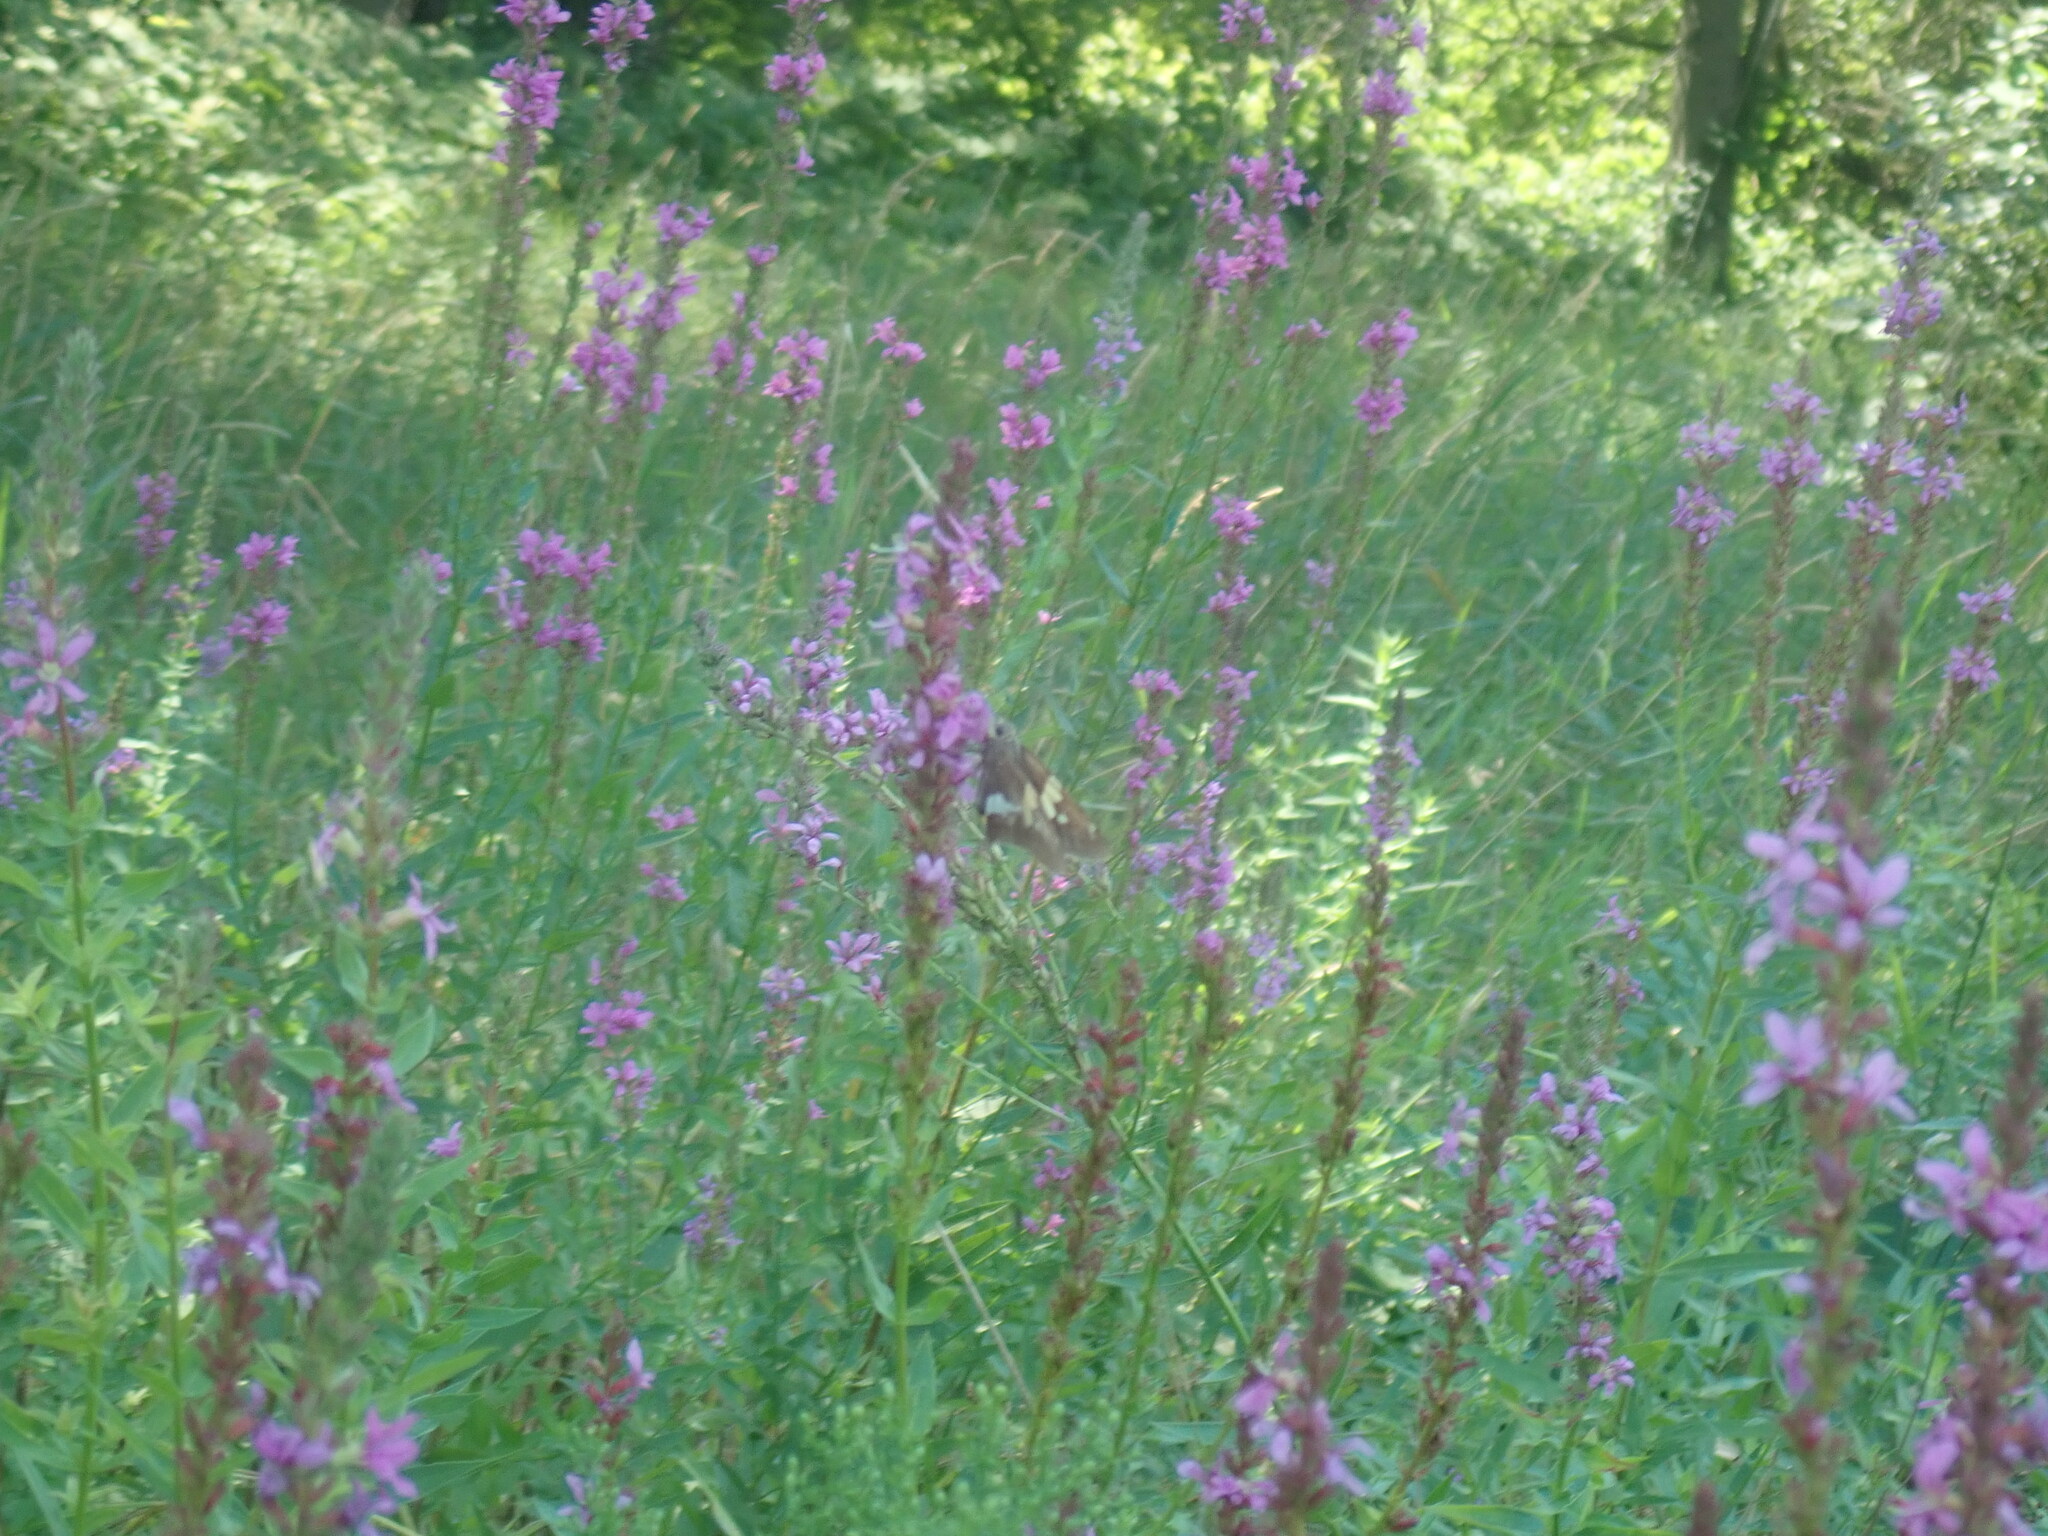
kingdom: Animalia
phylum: Arthropoda
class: Insecta
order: Lepidoptera
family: Hesperiidae
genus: Epargyreus
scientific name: Epargyreus clarus
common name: Silver-spotted skipper
